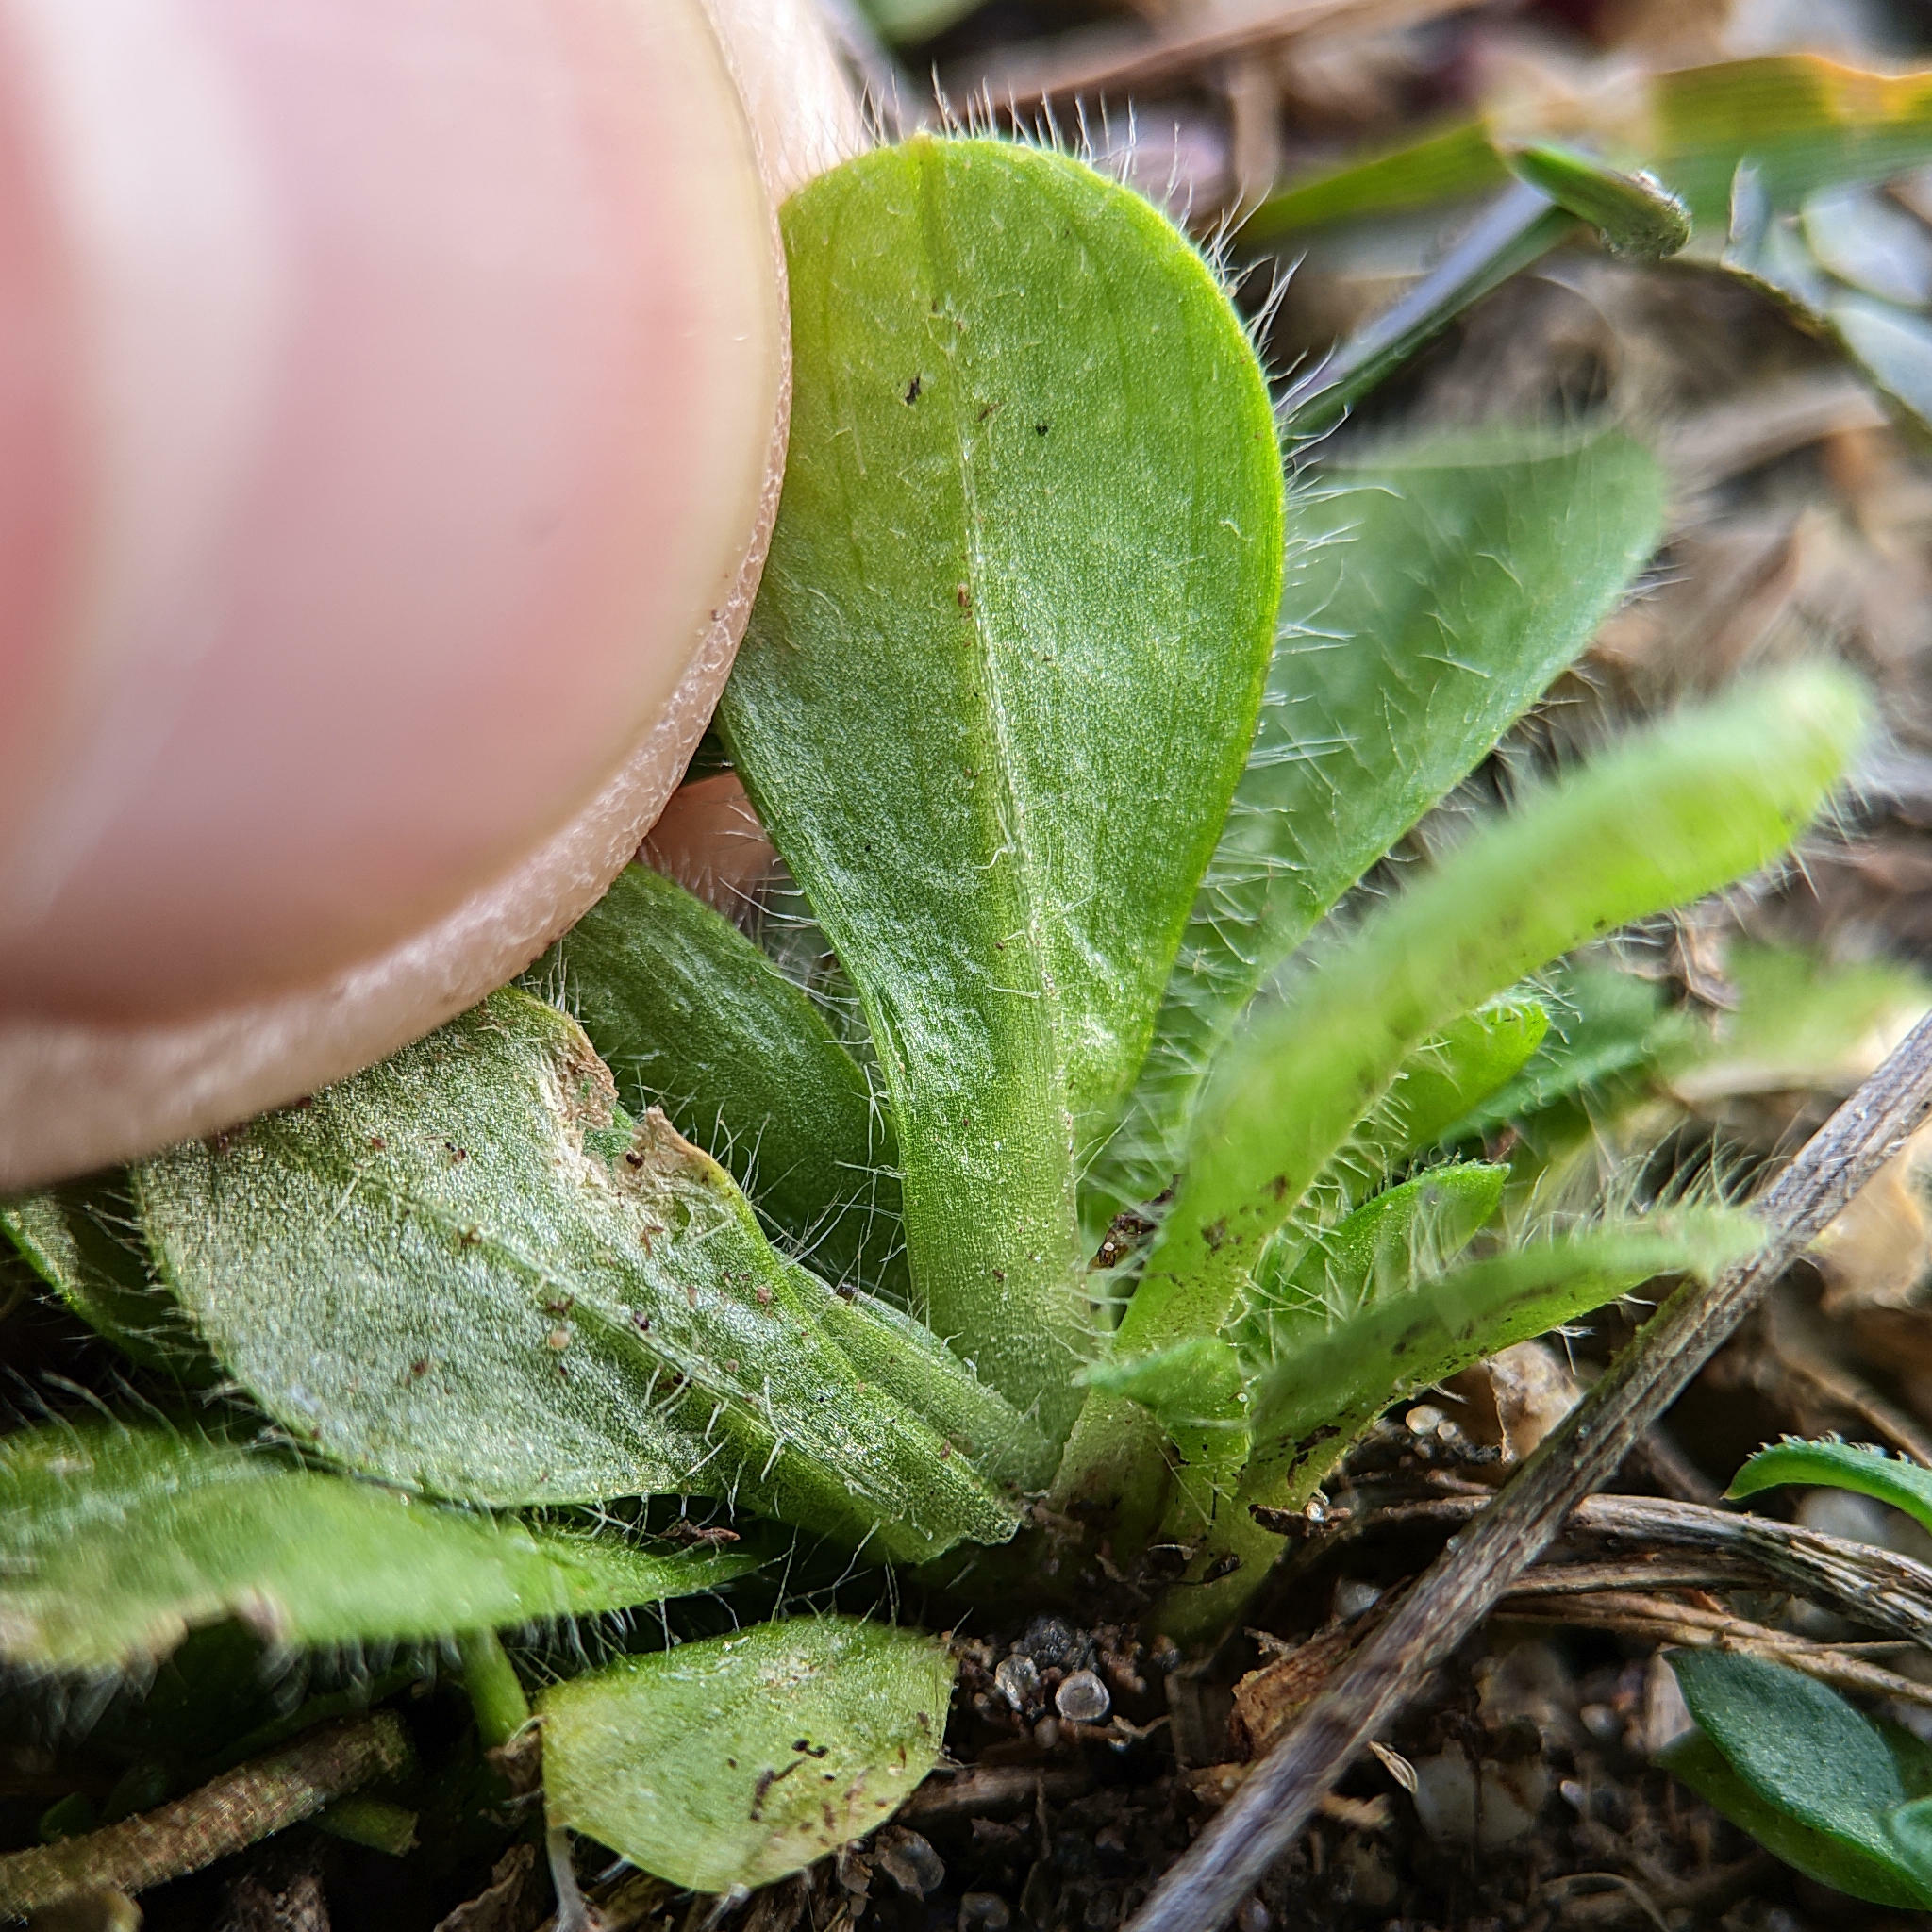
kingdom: Plantae
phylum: Tracheophyta
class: Magnoliopsida
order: Caryophyllales
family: Caryophyllaceae
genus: Cerastium
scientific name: Cerastium
